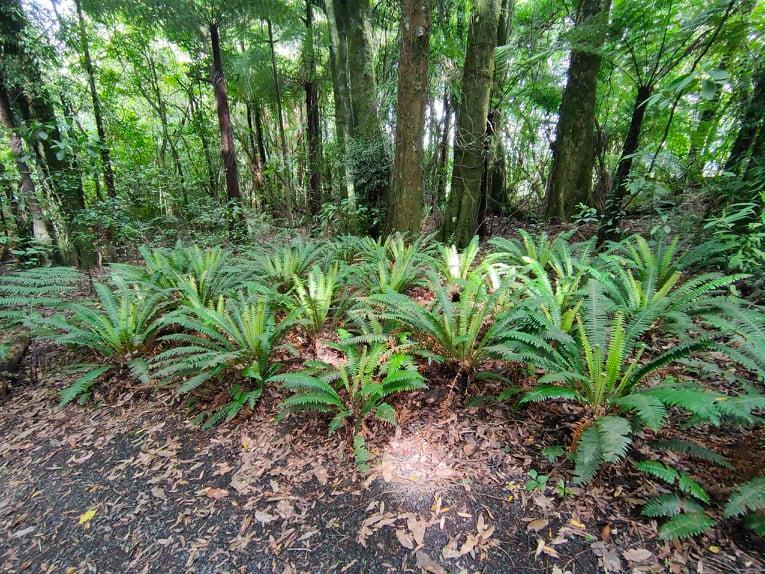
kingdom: Plantae
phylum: Tracheophyta
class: Polypodiopsida
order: Polypodiales
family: Blechnaceae
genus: Lomaria
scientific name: Lomaria discolor
